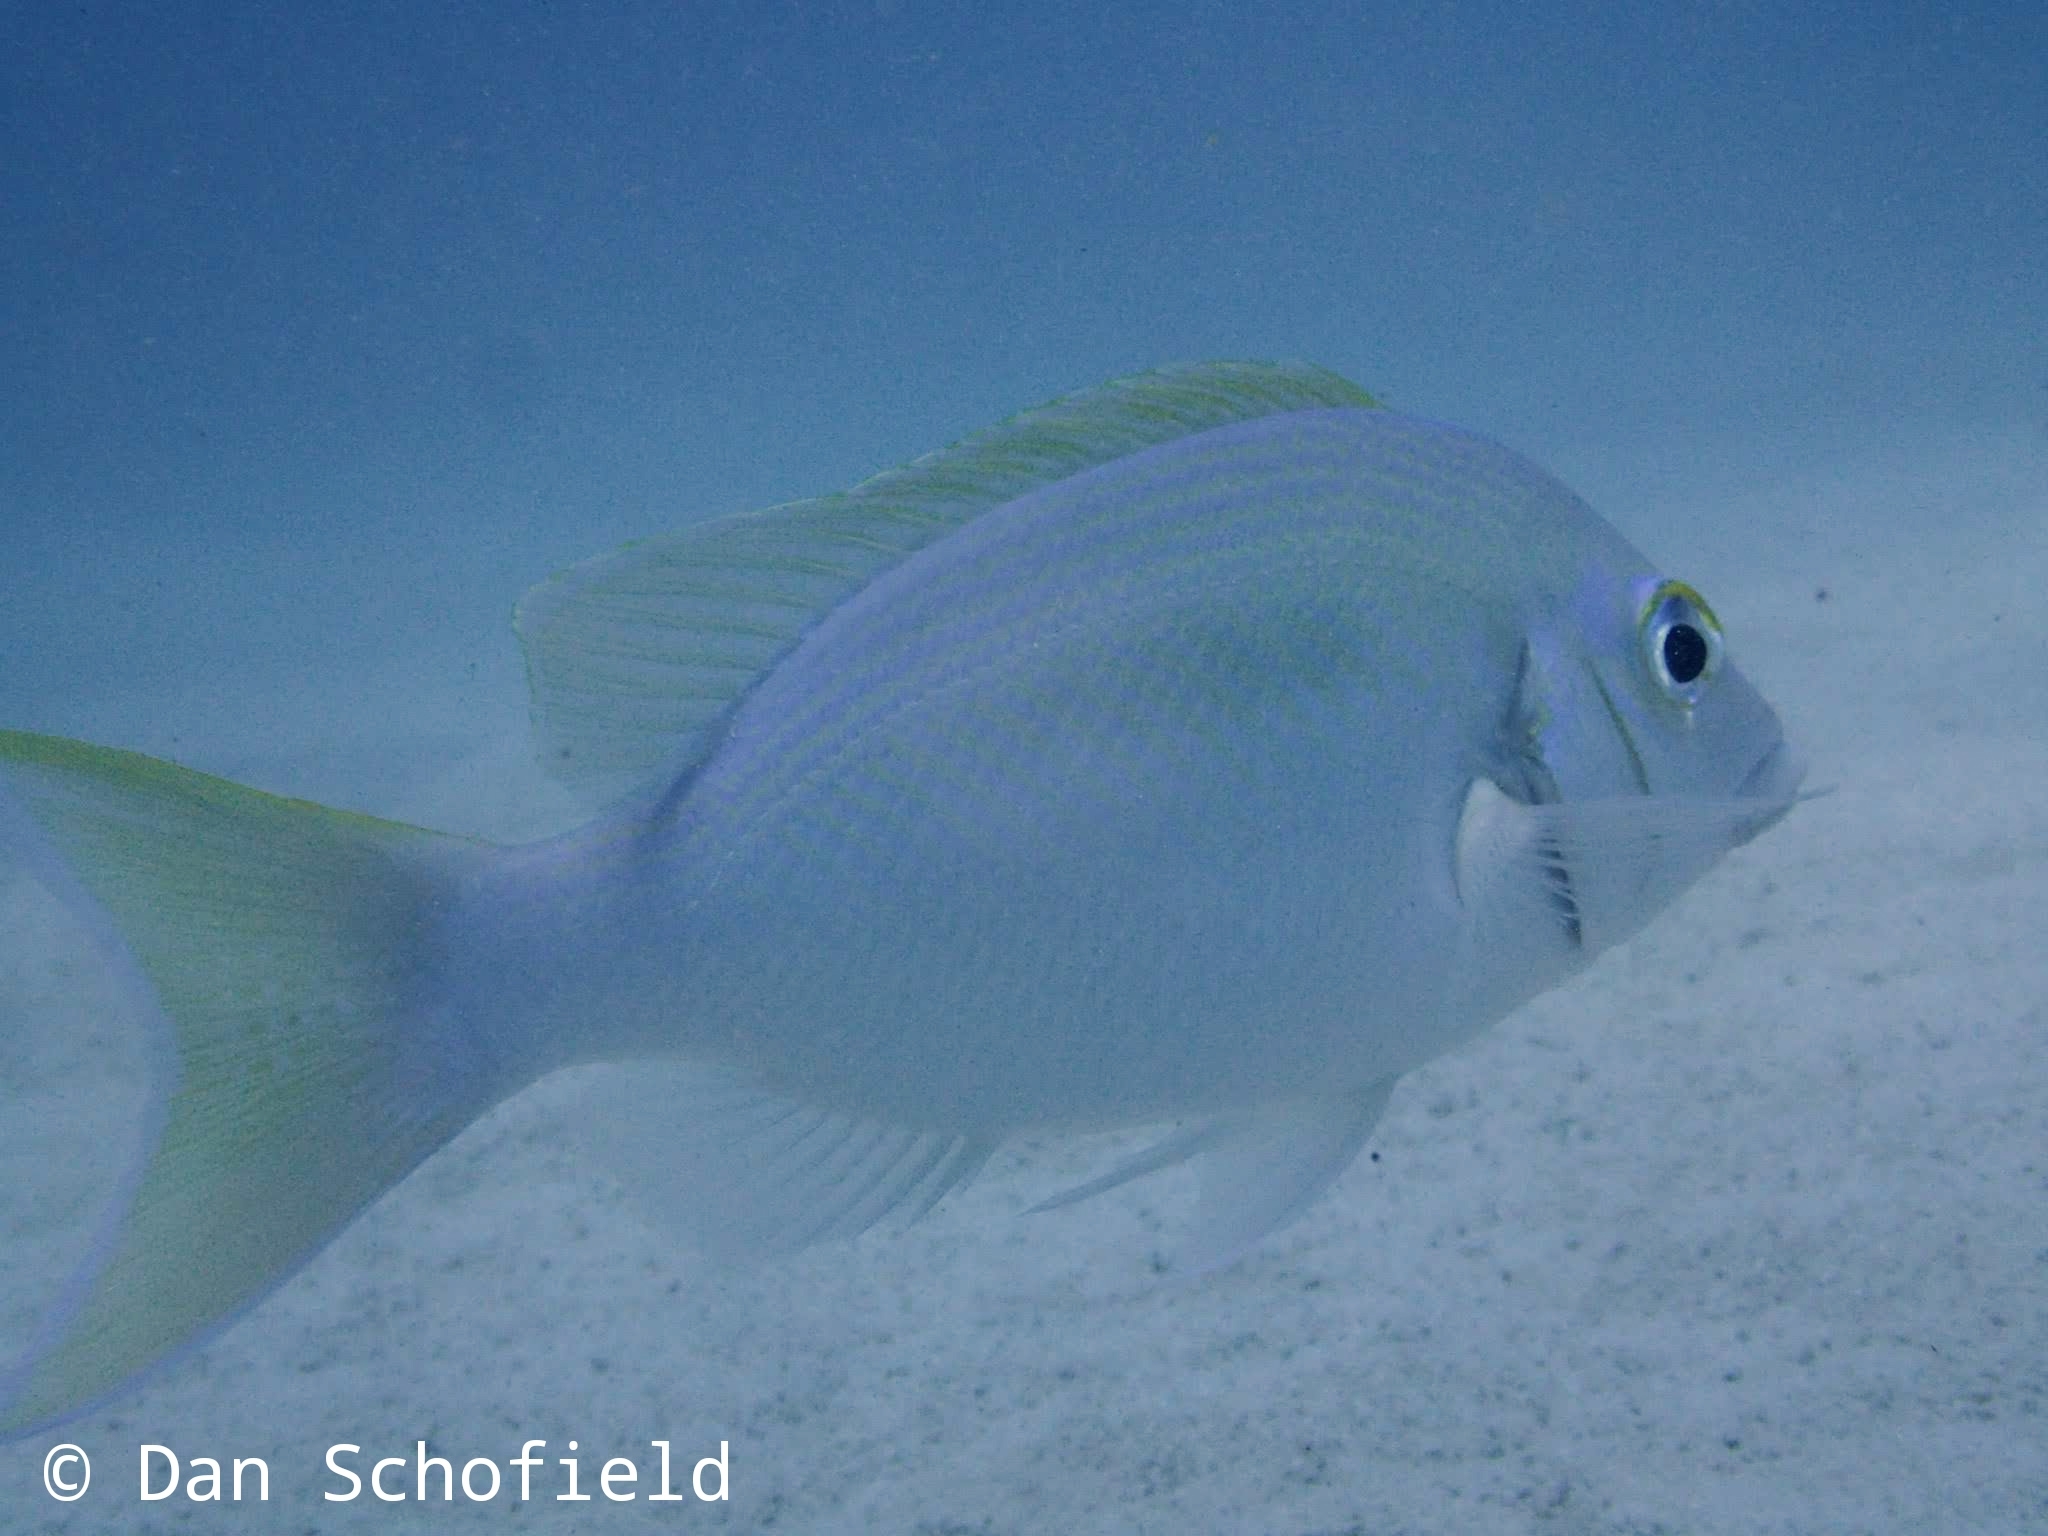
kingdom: Animalia
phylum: Chordata
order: Perciformes
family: Nemipteridae
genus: Scolopsis
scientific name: Scolopsis affinis
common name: Peters' monocle bream
